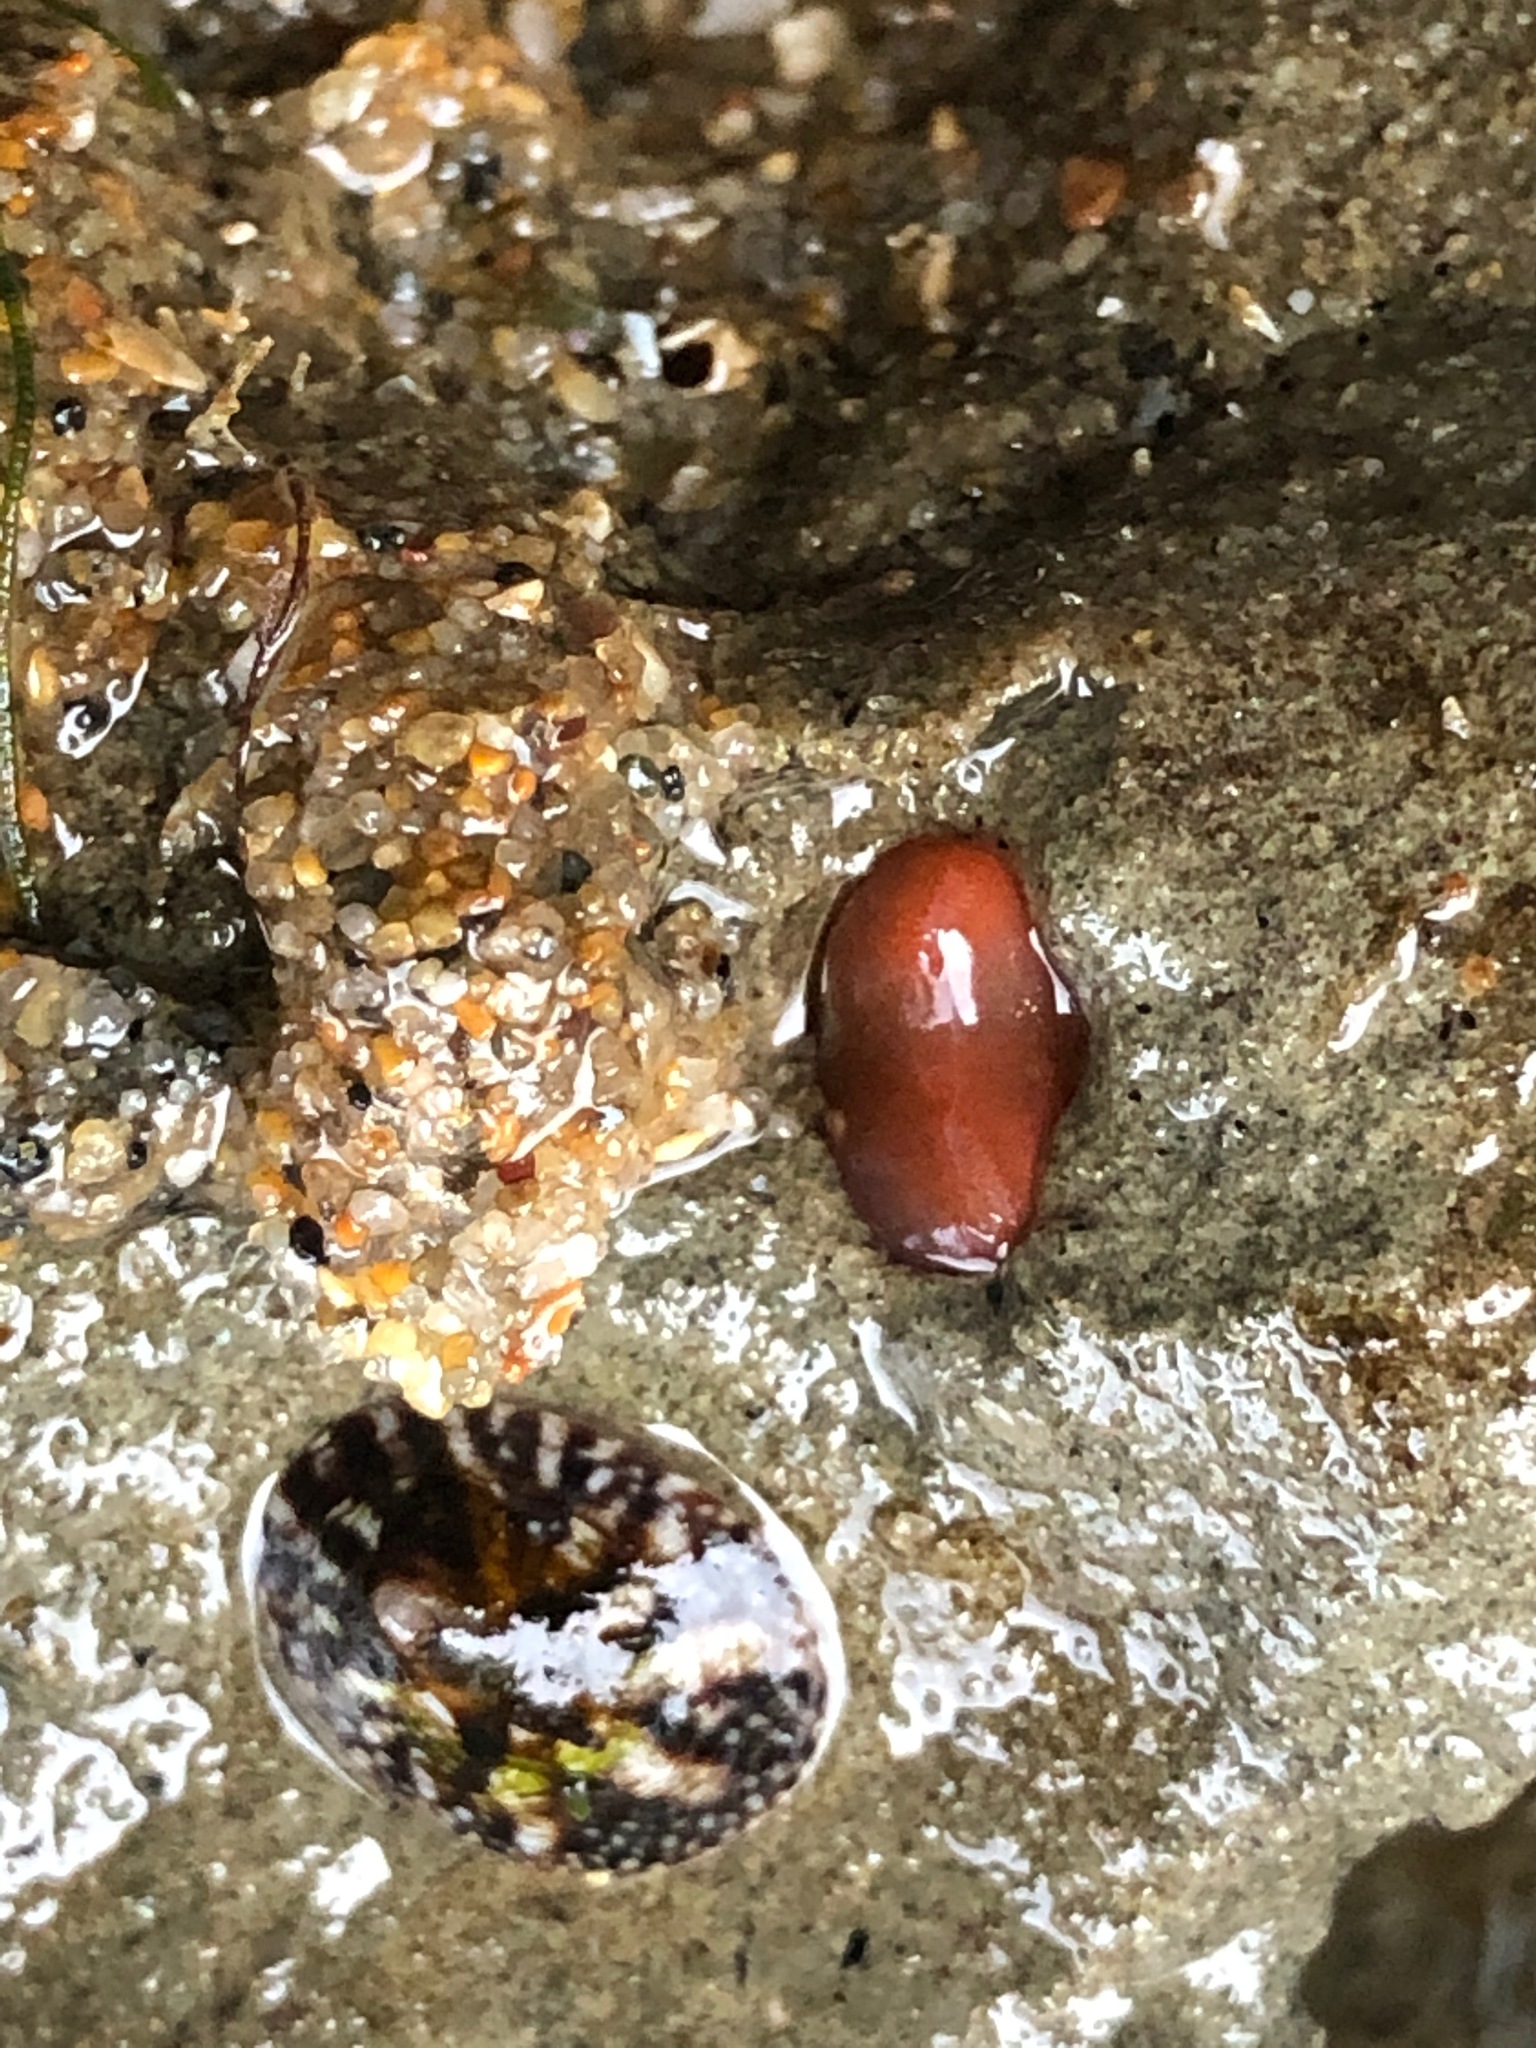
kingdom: Animalia
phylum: Mollusca
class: Bivalvia
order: Adapedonta
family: Hiatellidae
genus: Hiatella
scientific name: Hiatella arctica
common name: Arctic hiatella
